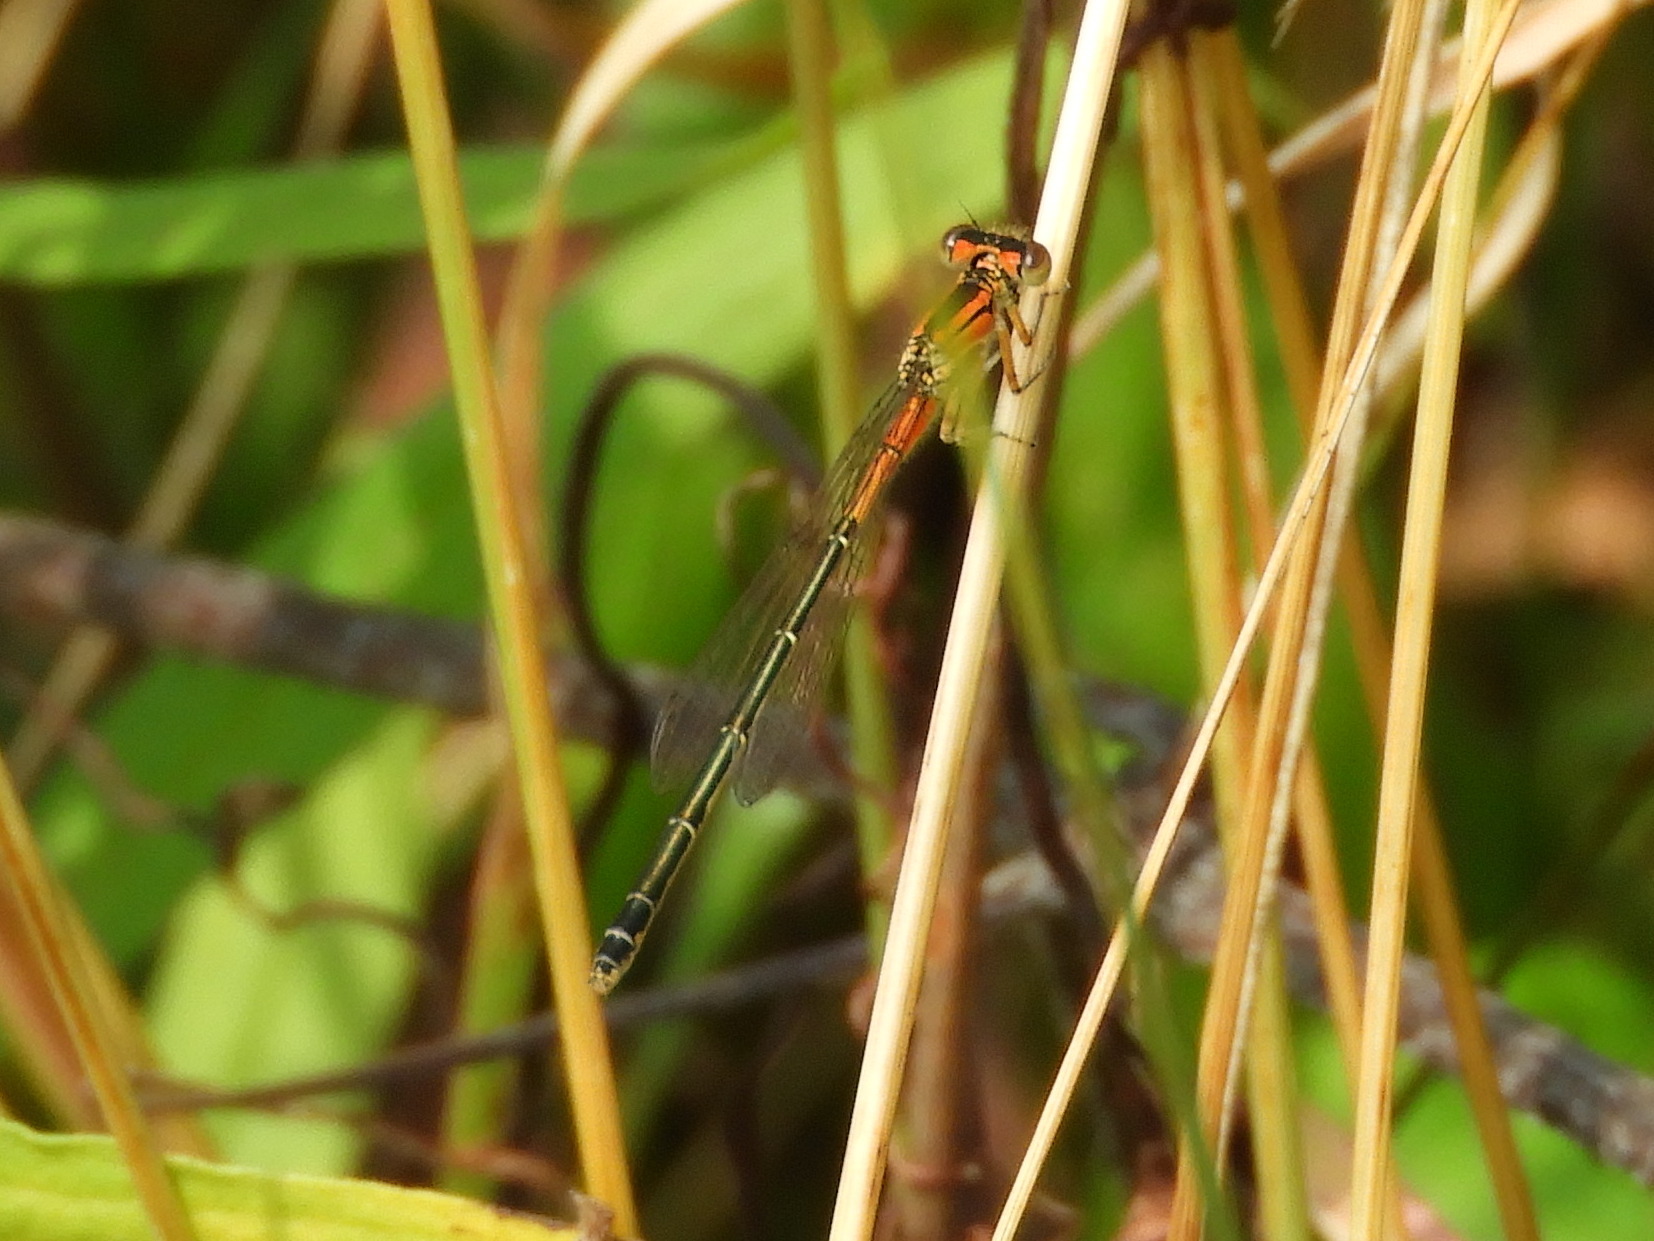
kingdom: Animalia
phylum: Arthropoda
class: Insecta
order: Odonata
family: Coenagrionidae
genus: Ischnura
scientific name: Ischnura verticalis
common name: Eastern forktail
